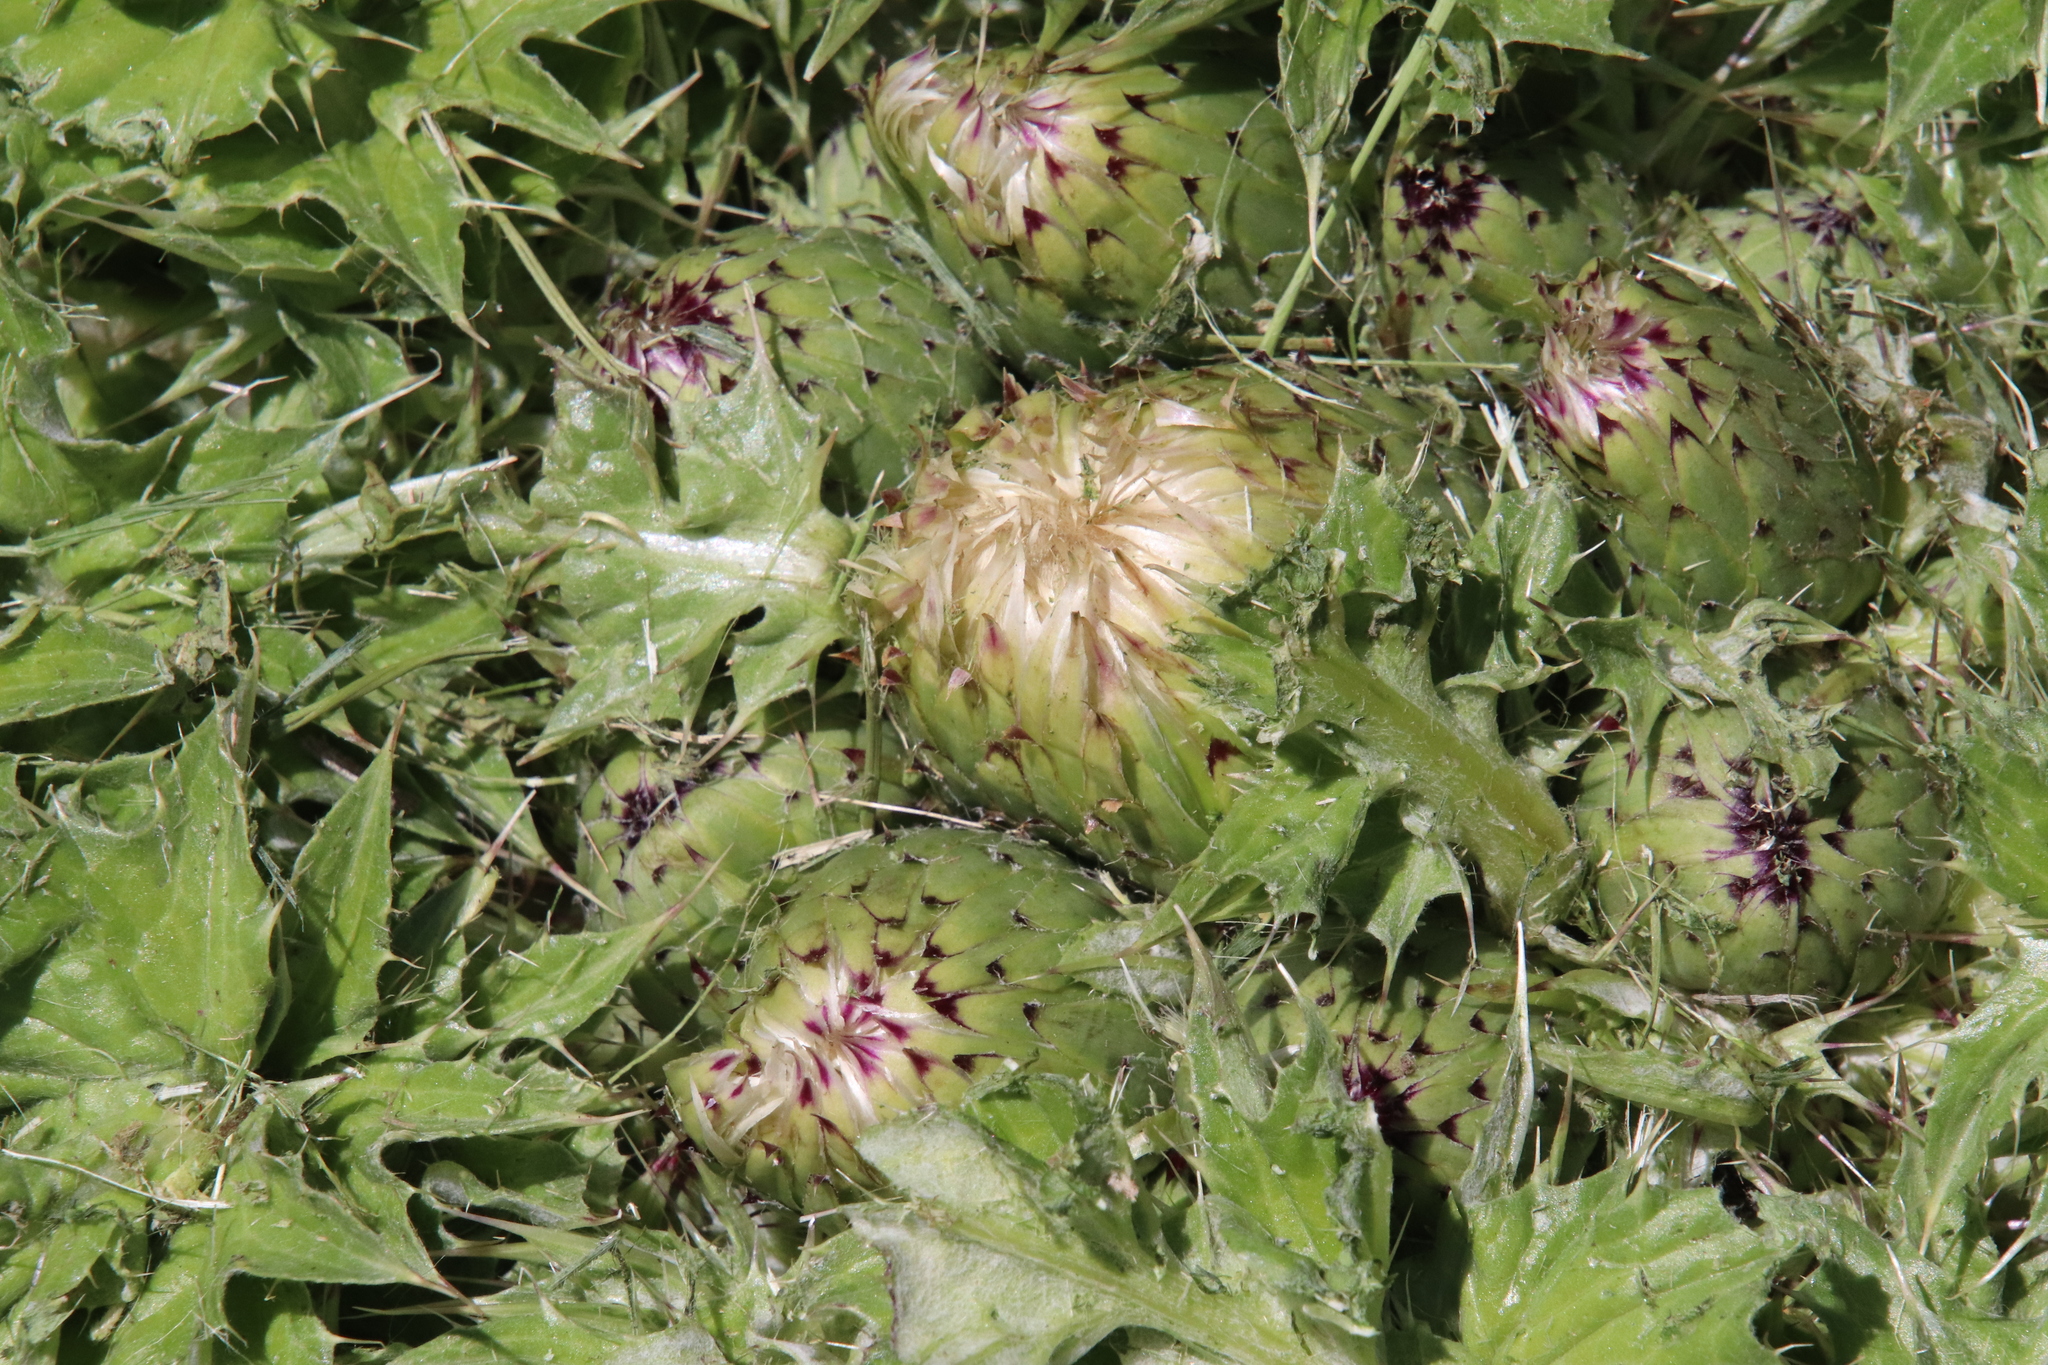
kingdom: Plantae
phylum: Tracheophyta
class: Magnoliopsida
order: Asterales
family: Asteraceae
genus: Cirsium
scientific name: Cirsium scariosum
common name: Meadow thistle
